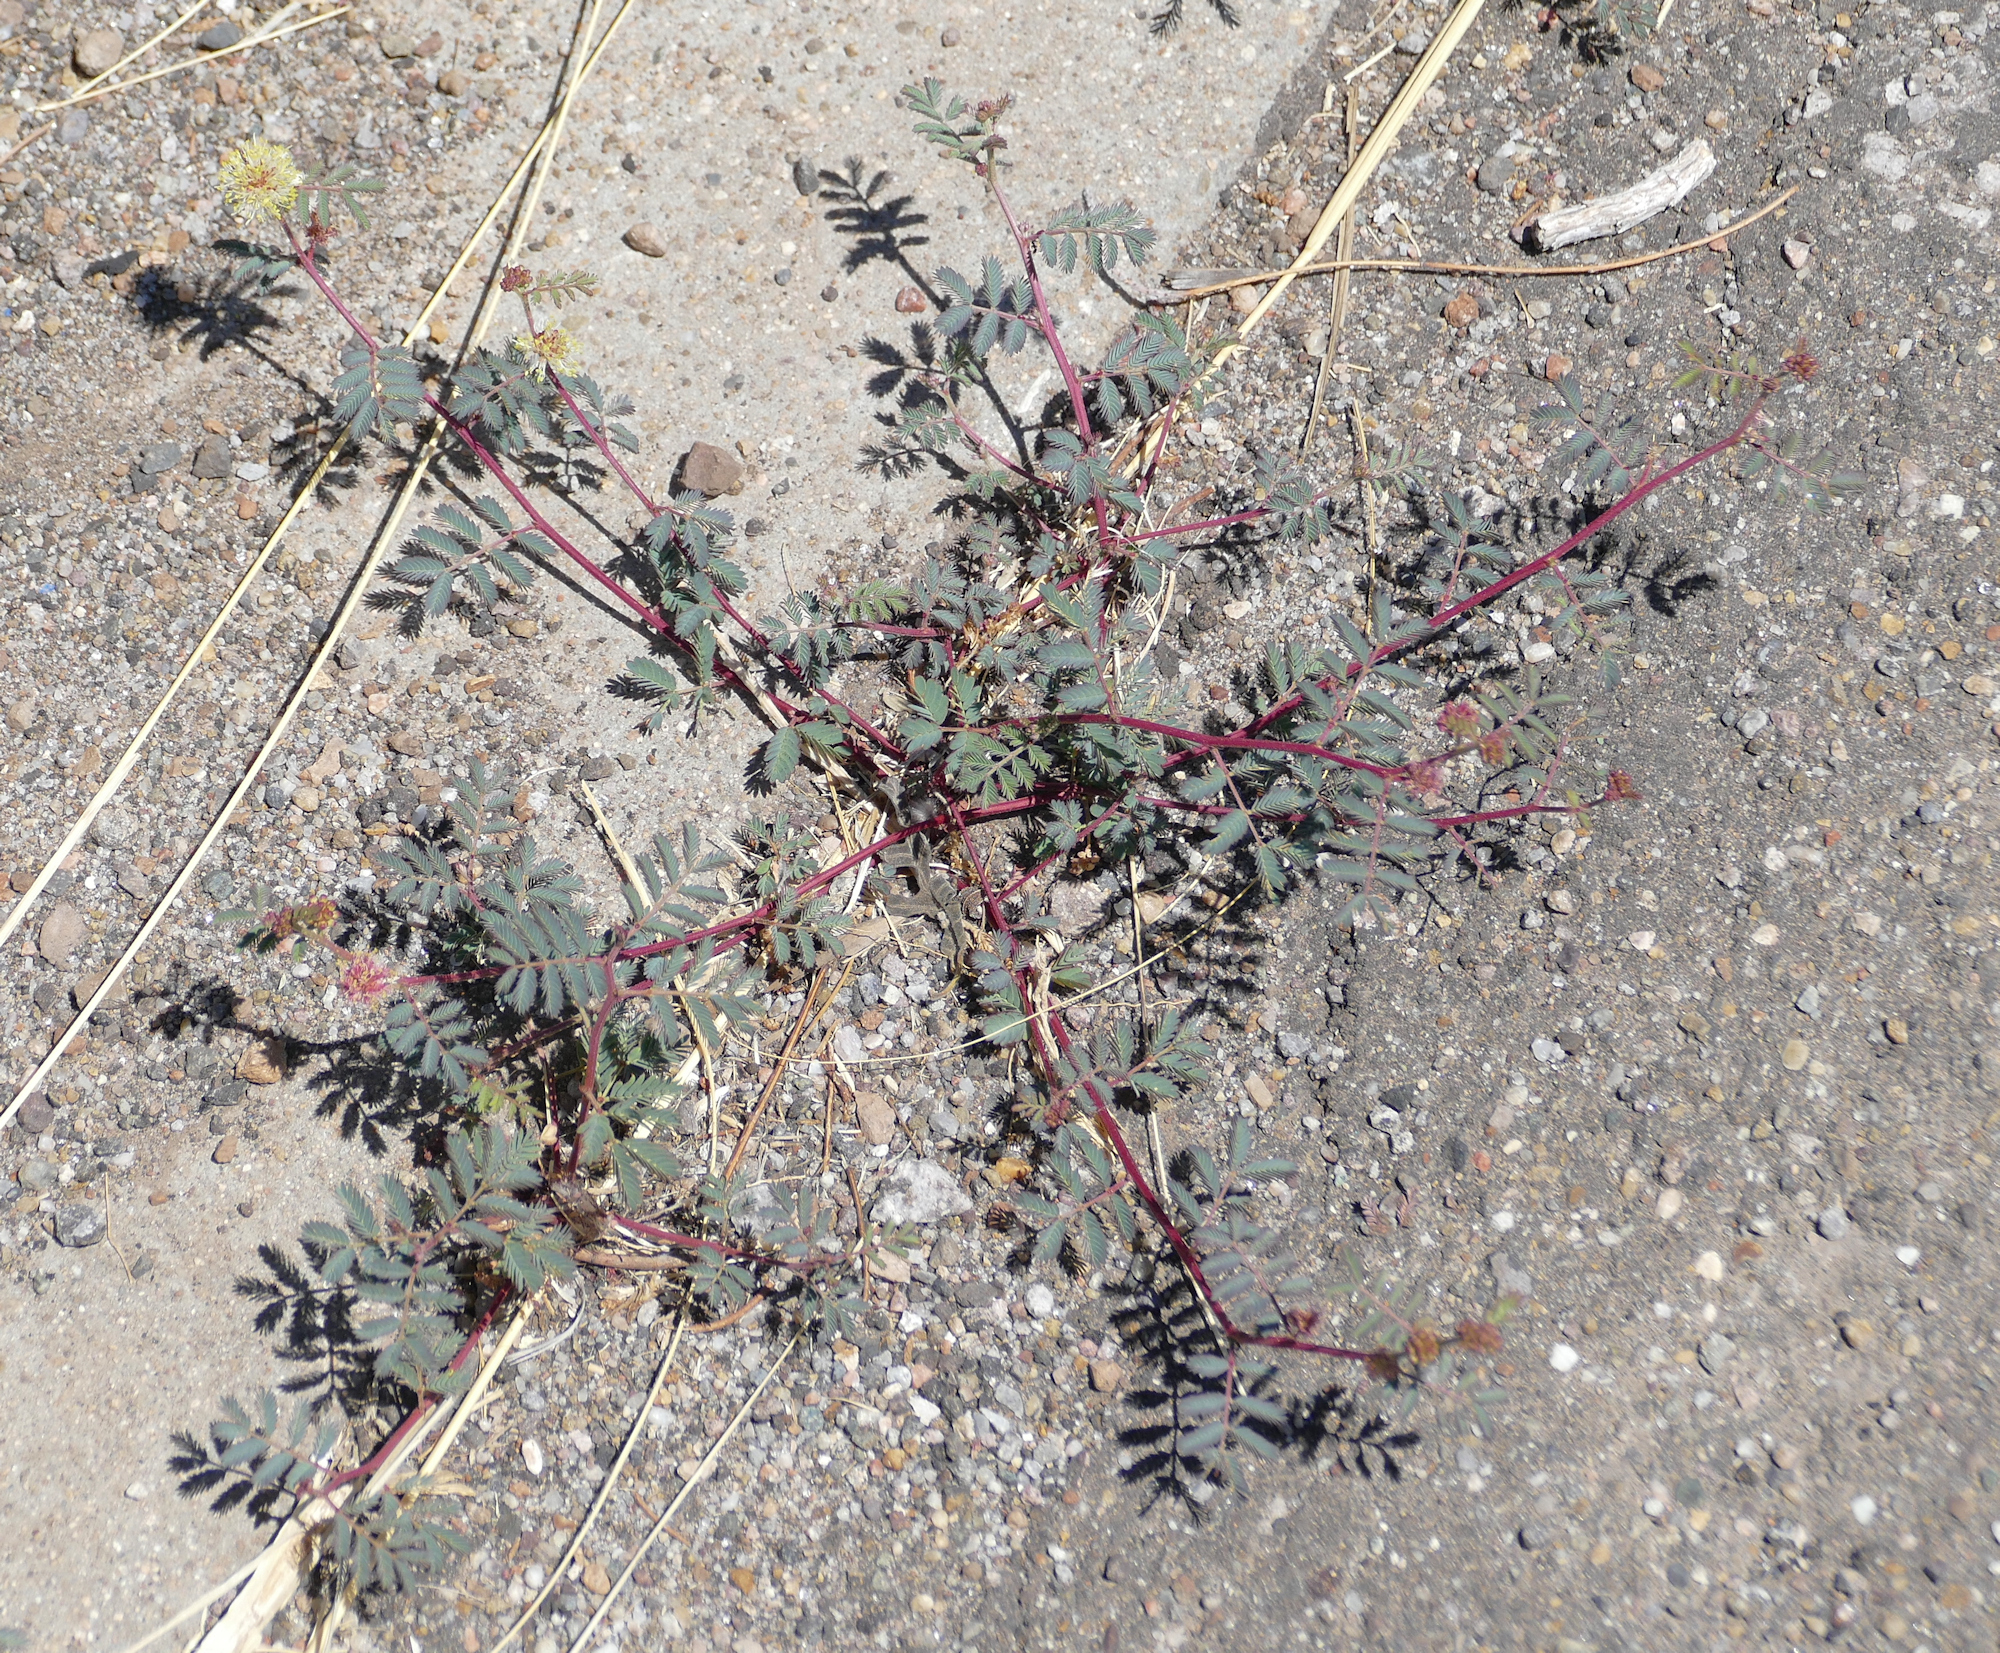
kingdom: Plantae
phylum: Tracheophyta
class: Magnoliopsida
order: Fabales
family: Fabaceae
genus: Desmanthus
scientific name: Desmanthus cooleyi
